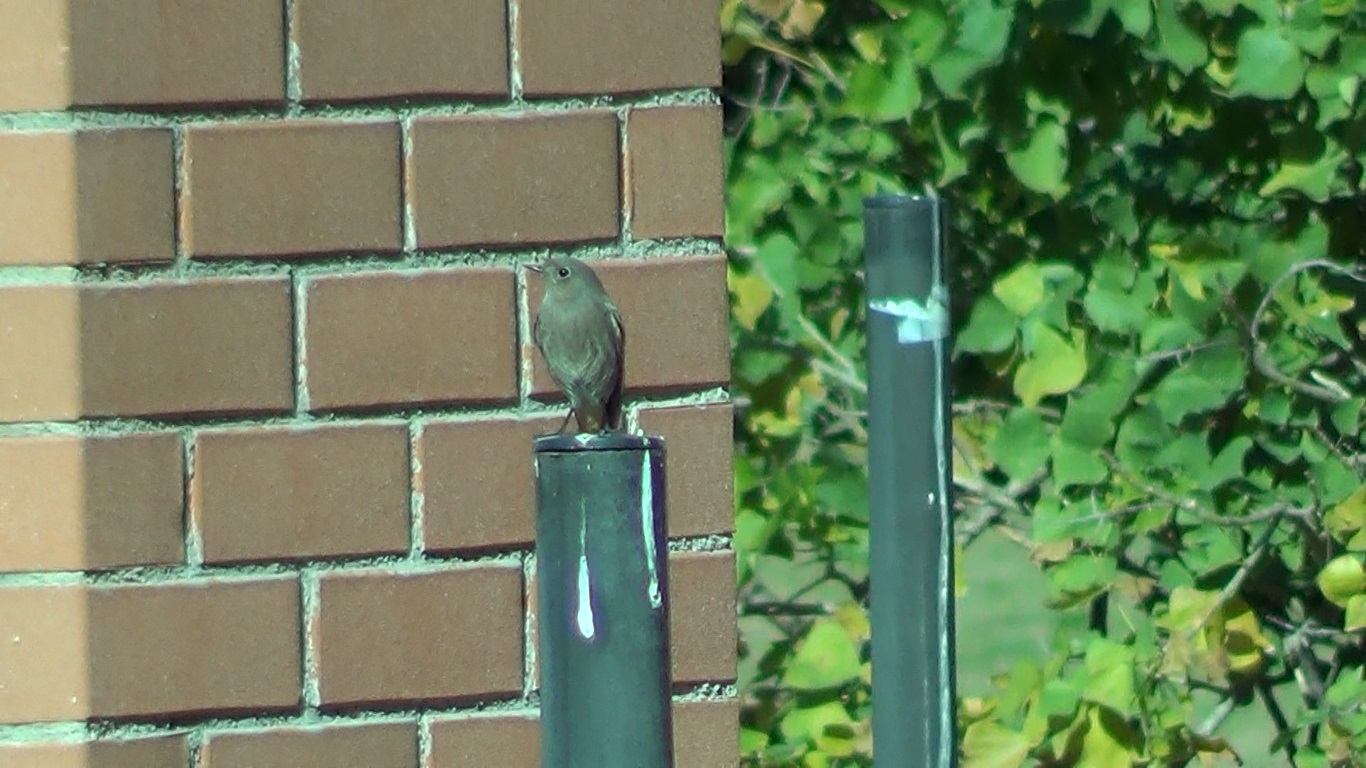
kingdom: Animalia
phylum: Chordata
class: Aves
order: Passeriformes
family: Muscicapidae
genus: Phoenicurus
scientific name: Phoenicurus ochruros
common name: Black redstart
